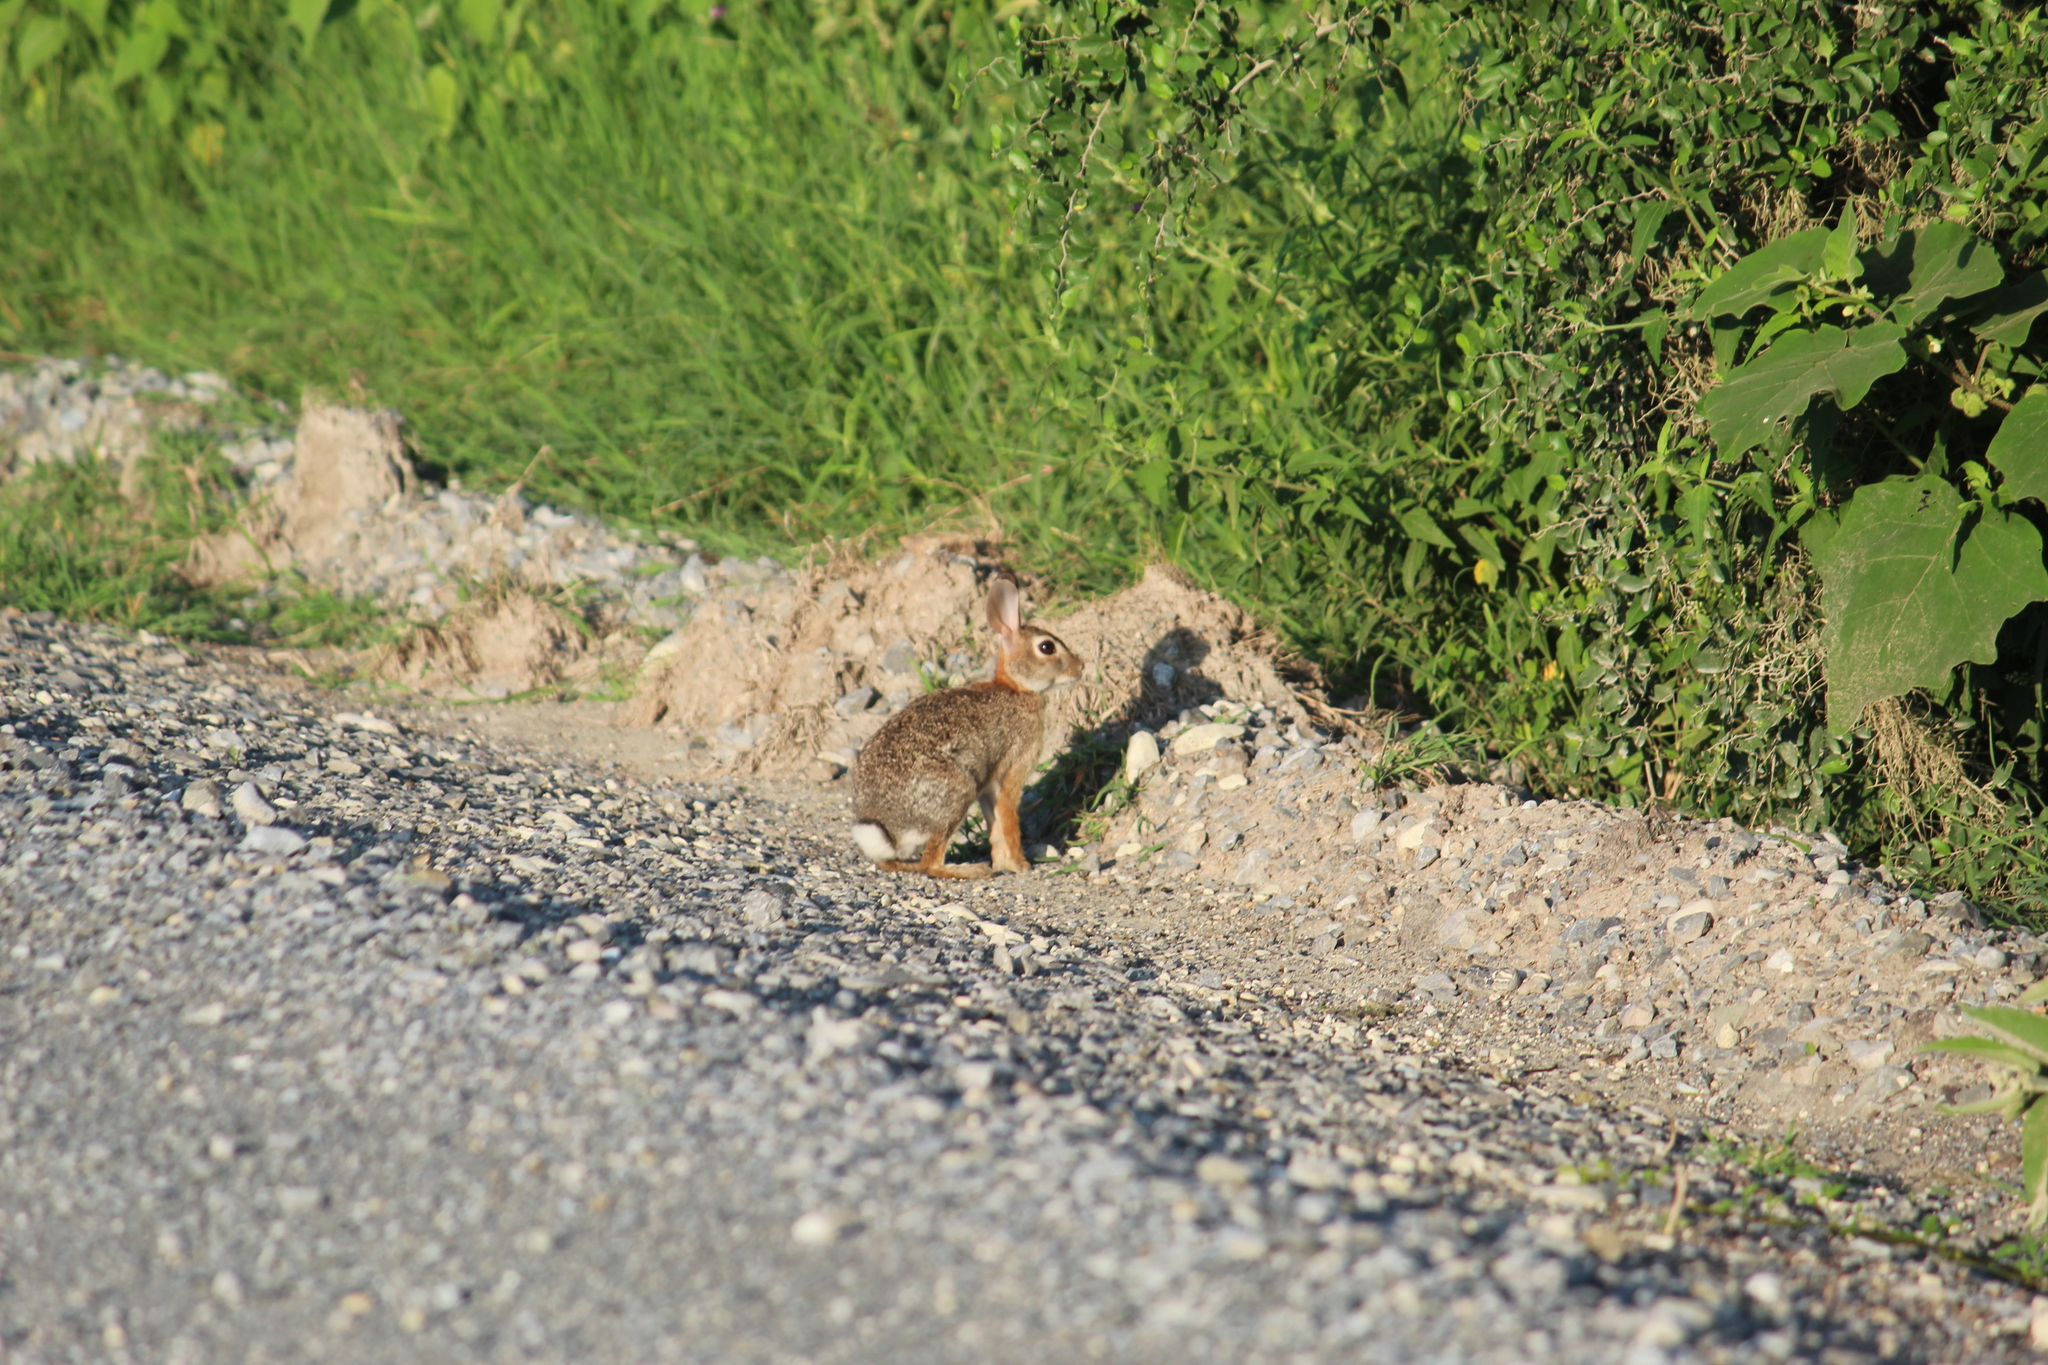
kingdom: Animalia
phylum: Chordata
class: Mammalia
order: Lagomorpha
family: Leporidae
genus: Sylvilagus
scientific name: Sylvilagus floridanus
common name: Eastern cottontail
